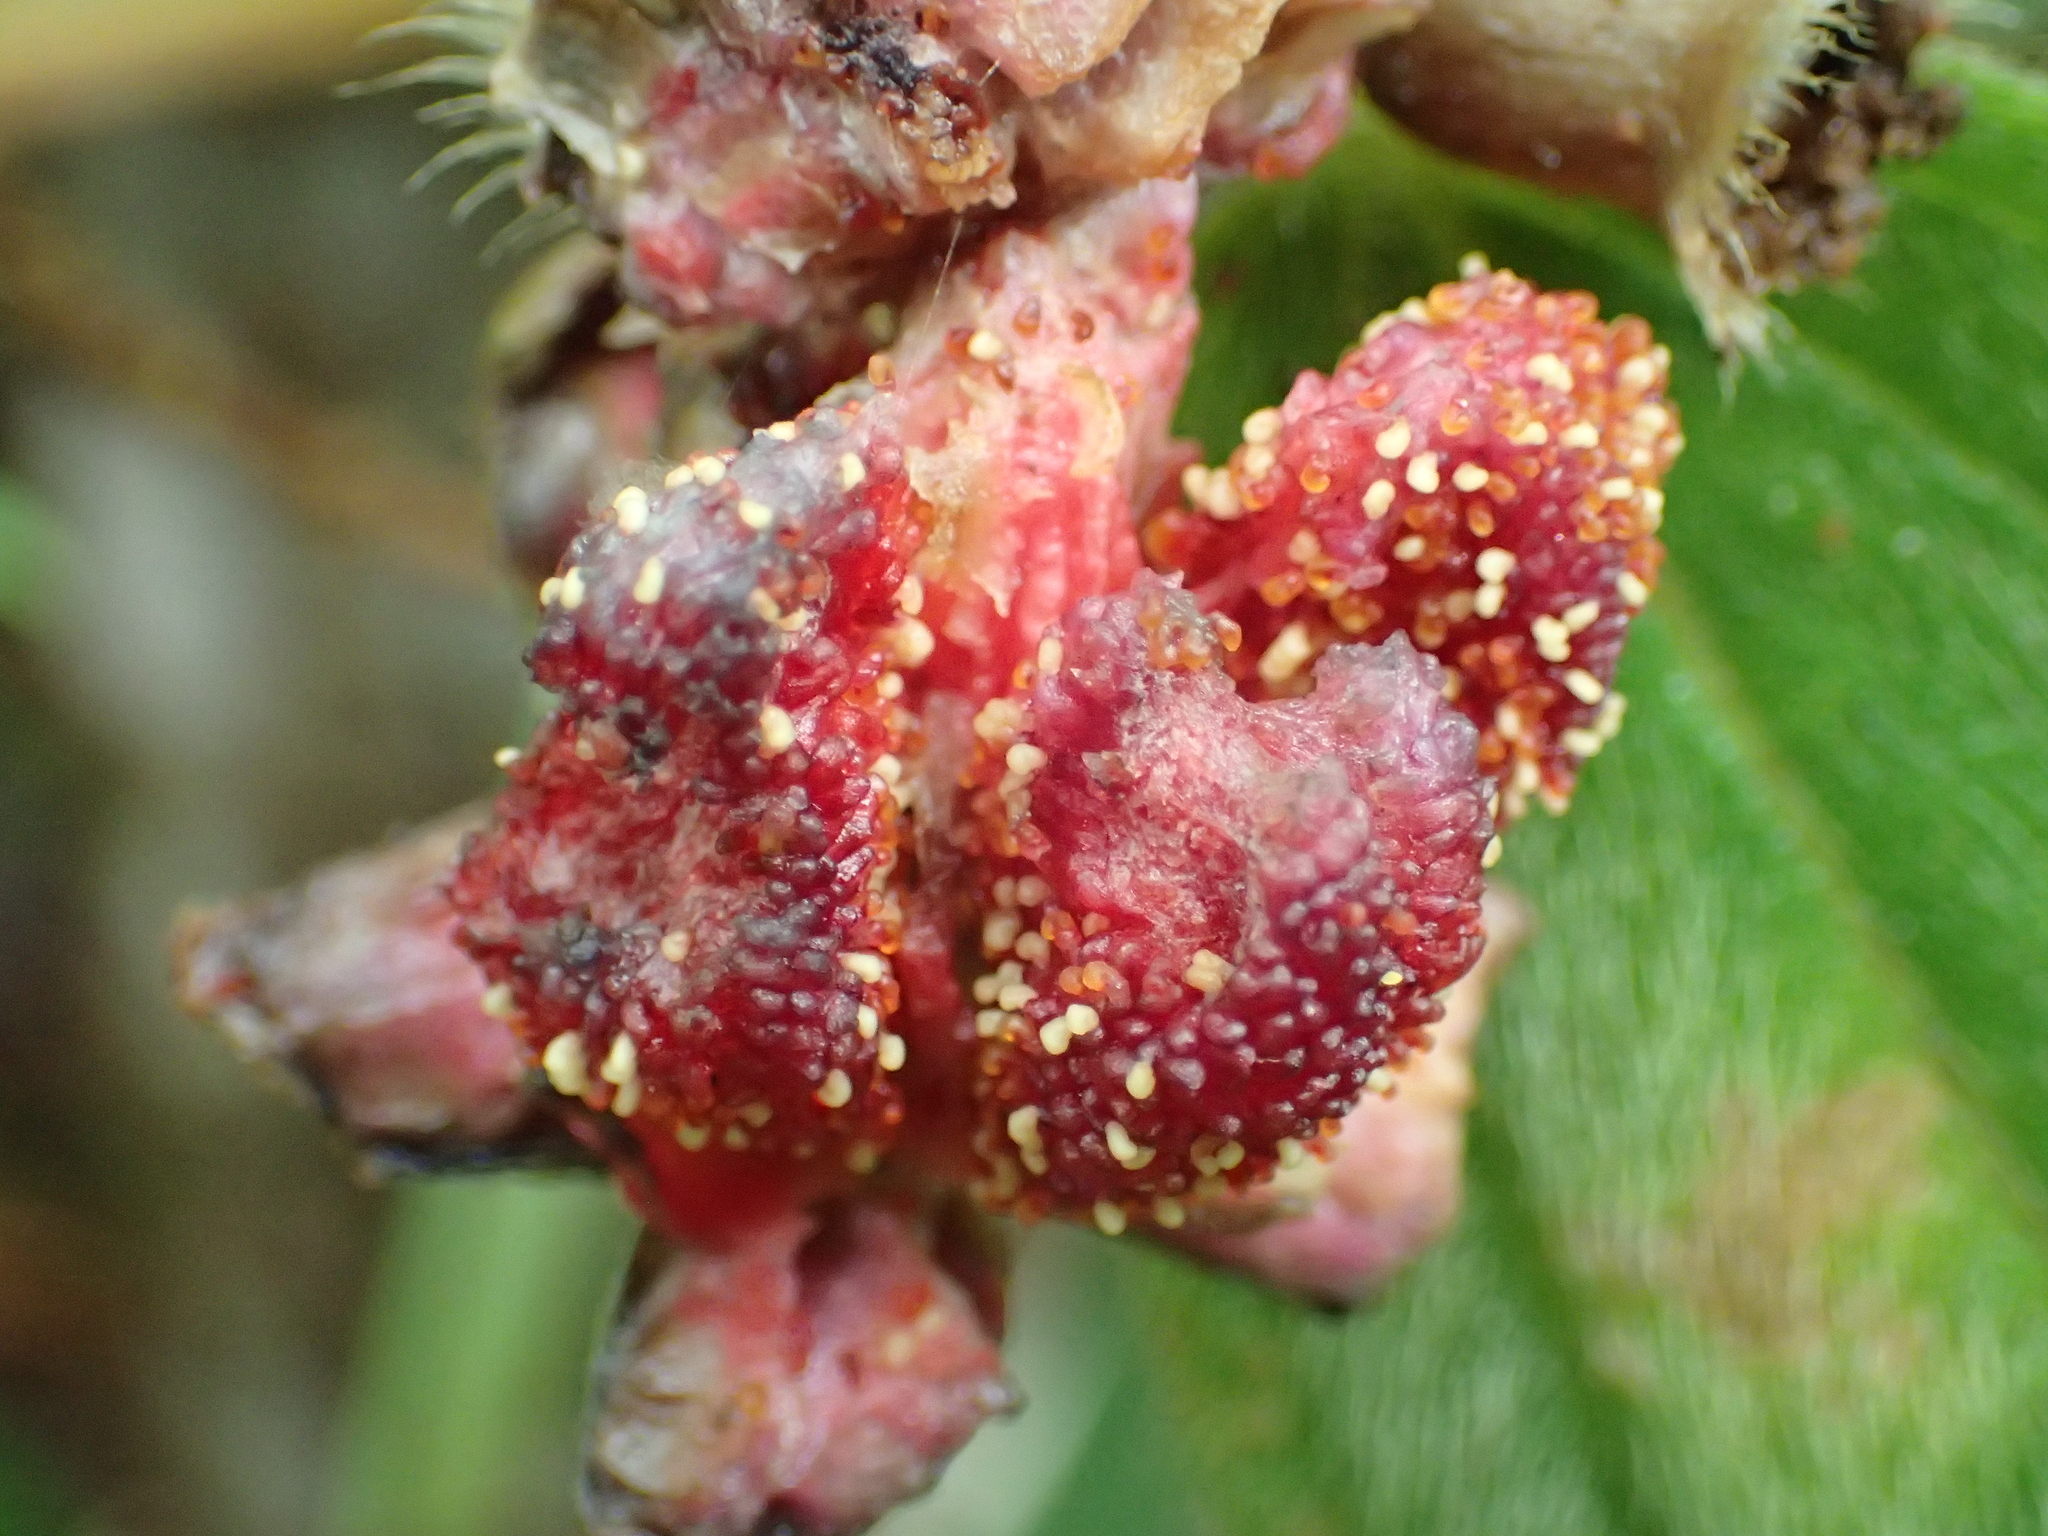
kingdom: Plantae
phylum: Tracheophyta
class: Magnoliopsida
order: Myrtales
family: Melastomataceae
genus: Melastoma
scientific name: Melastoma malabathricum
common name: Indian-rhododendron
